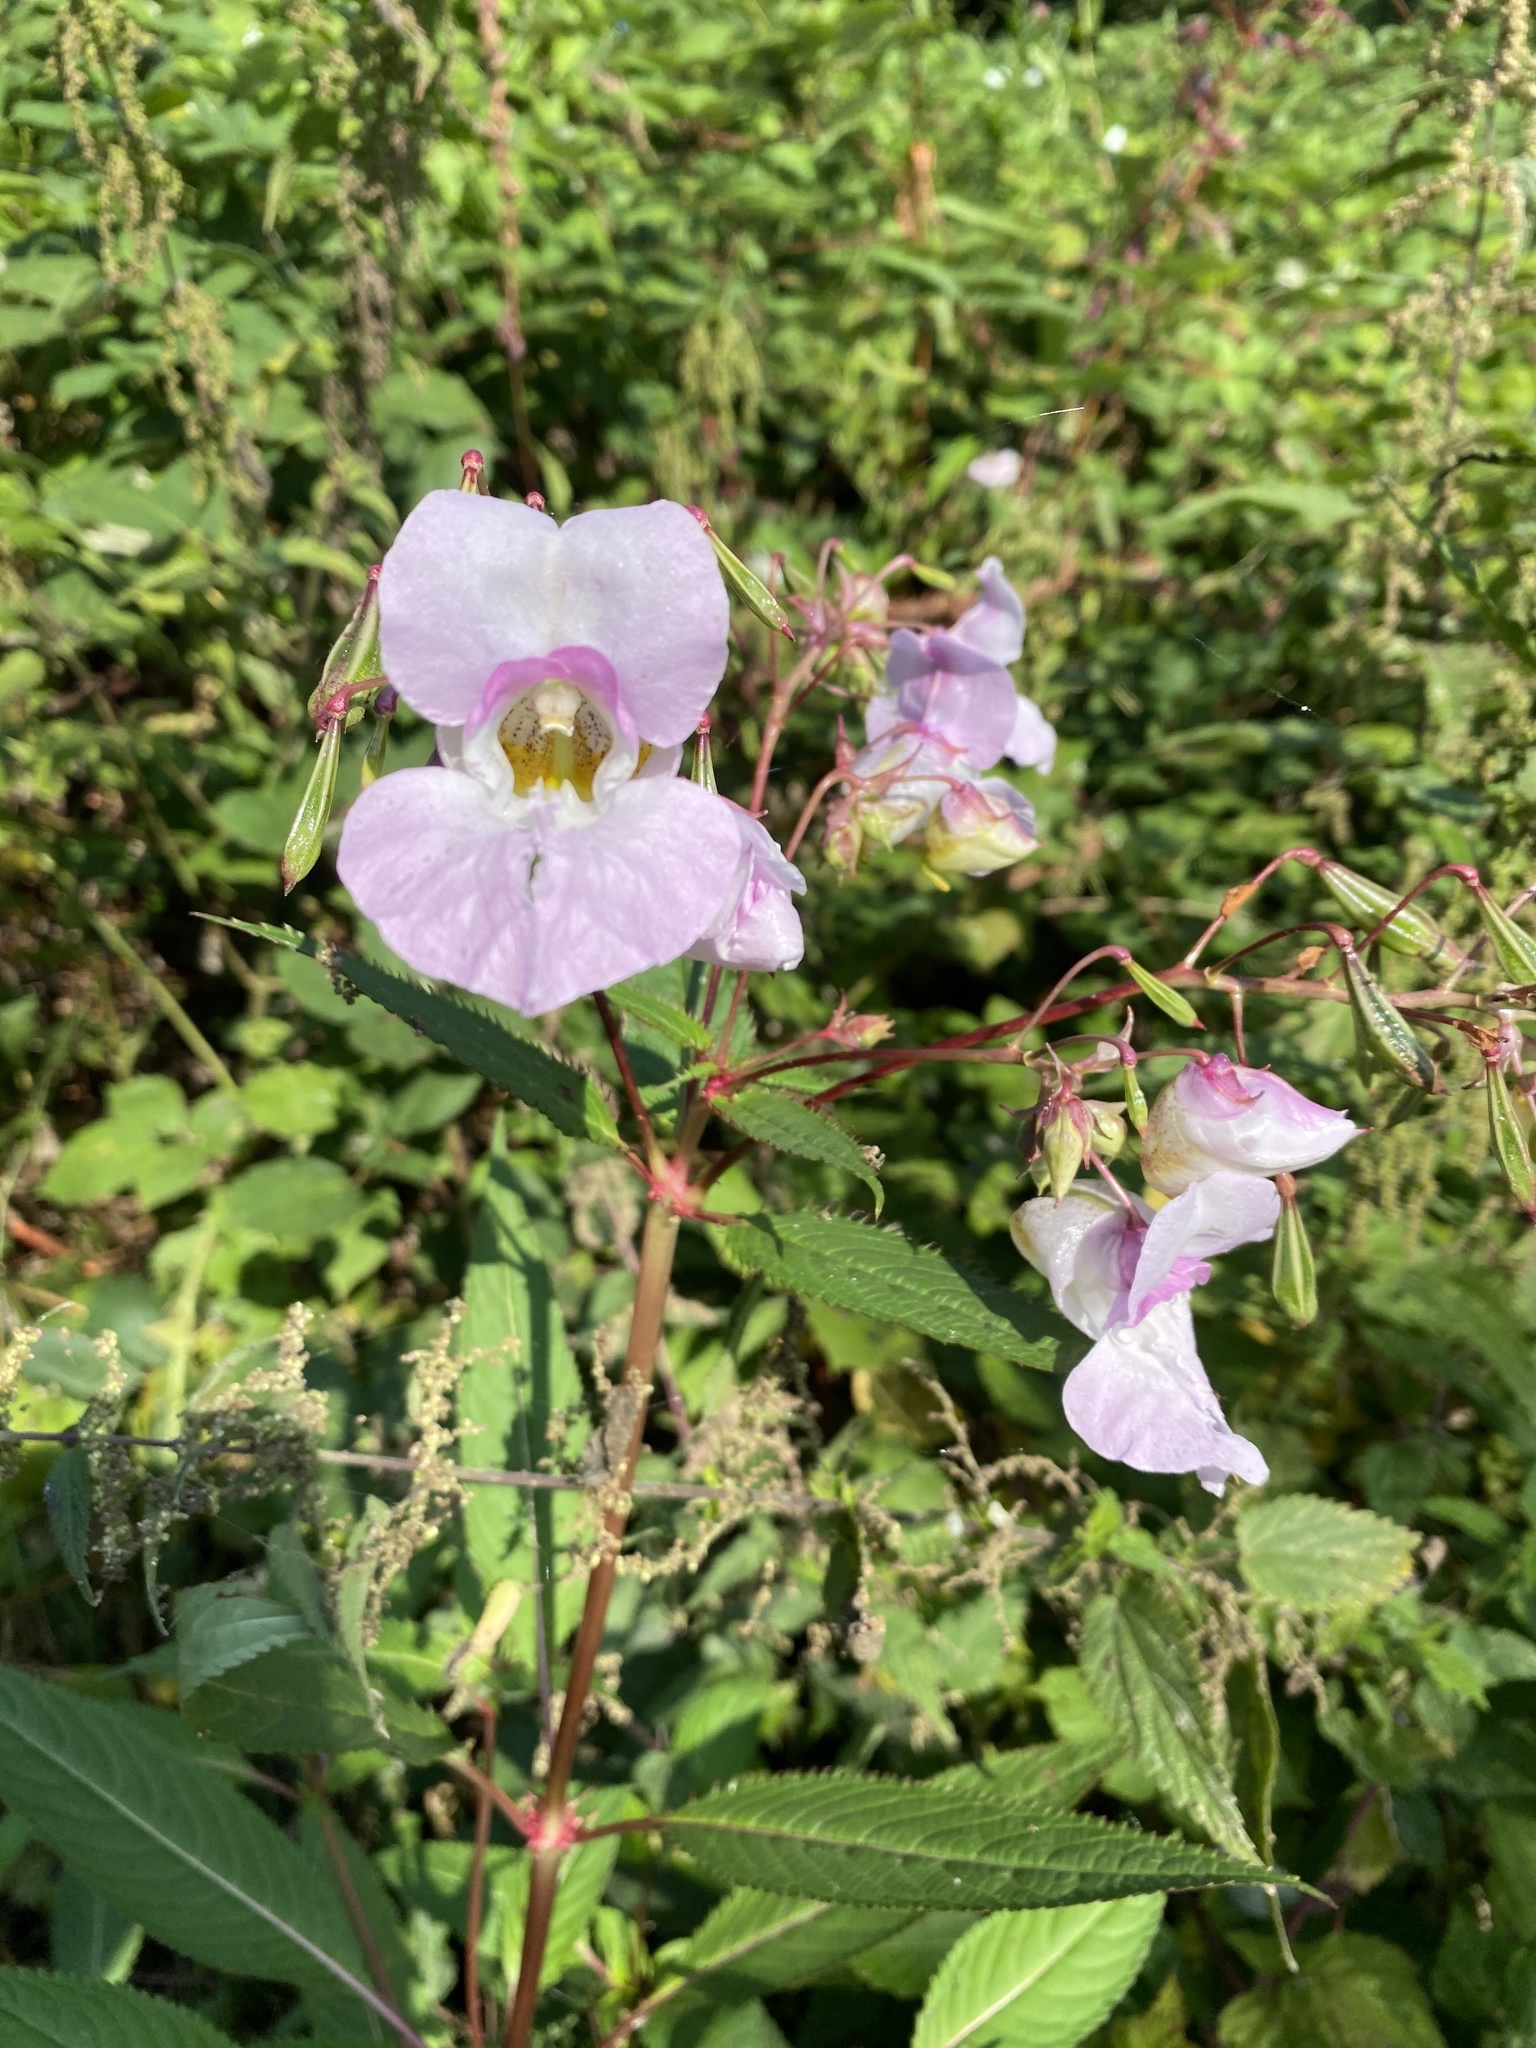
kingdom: Plantae
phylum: Tracheophyta
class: Magnoliopsida
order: Ericales
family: Balsaminaceae
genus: Impatiens
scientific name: Impatiens glandulifera
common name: Himalayan balsam
